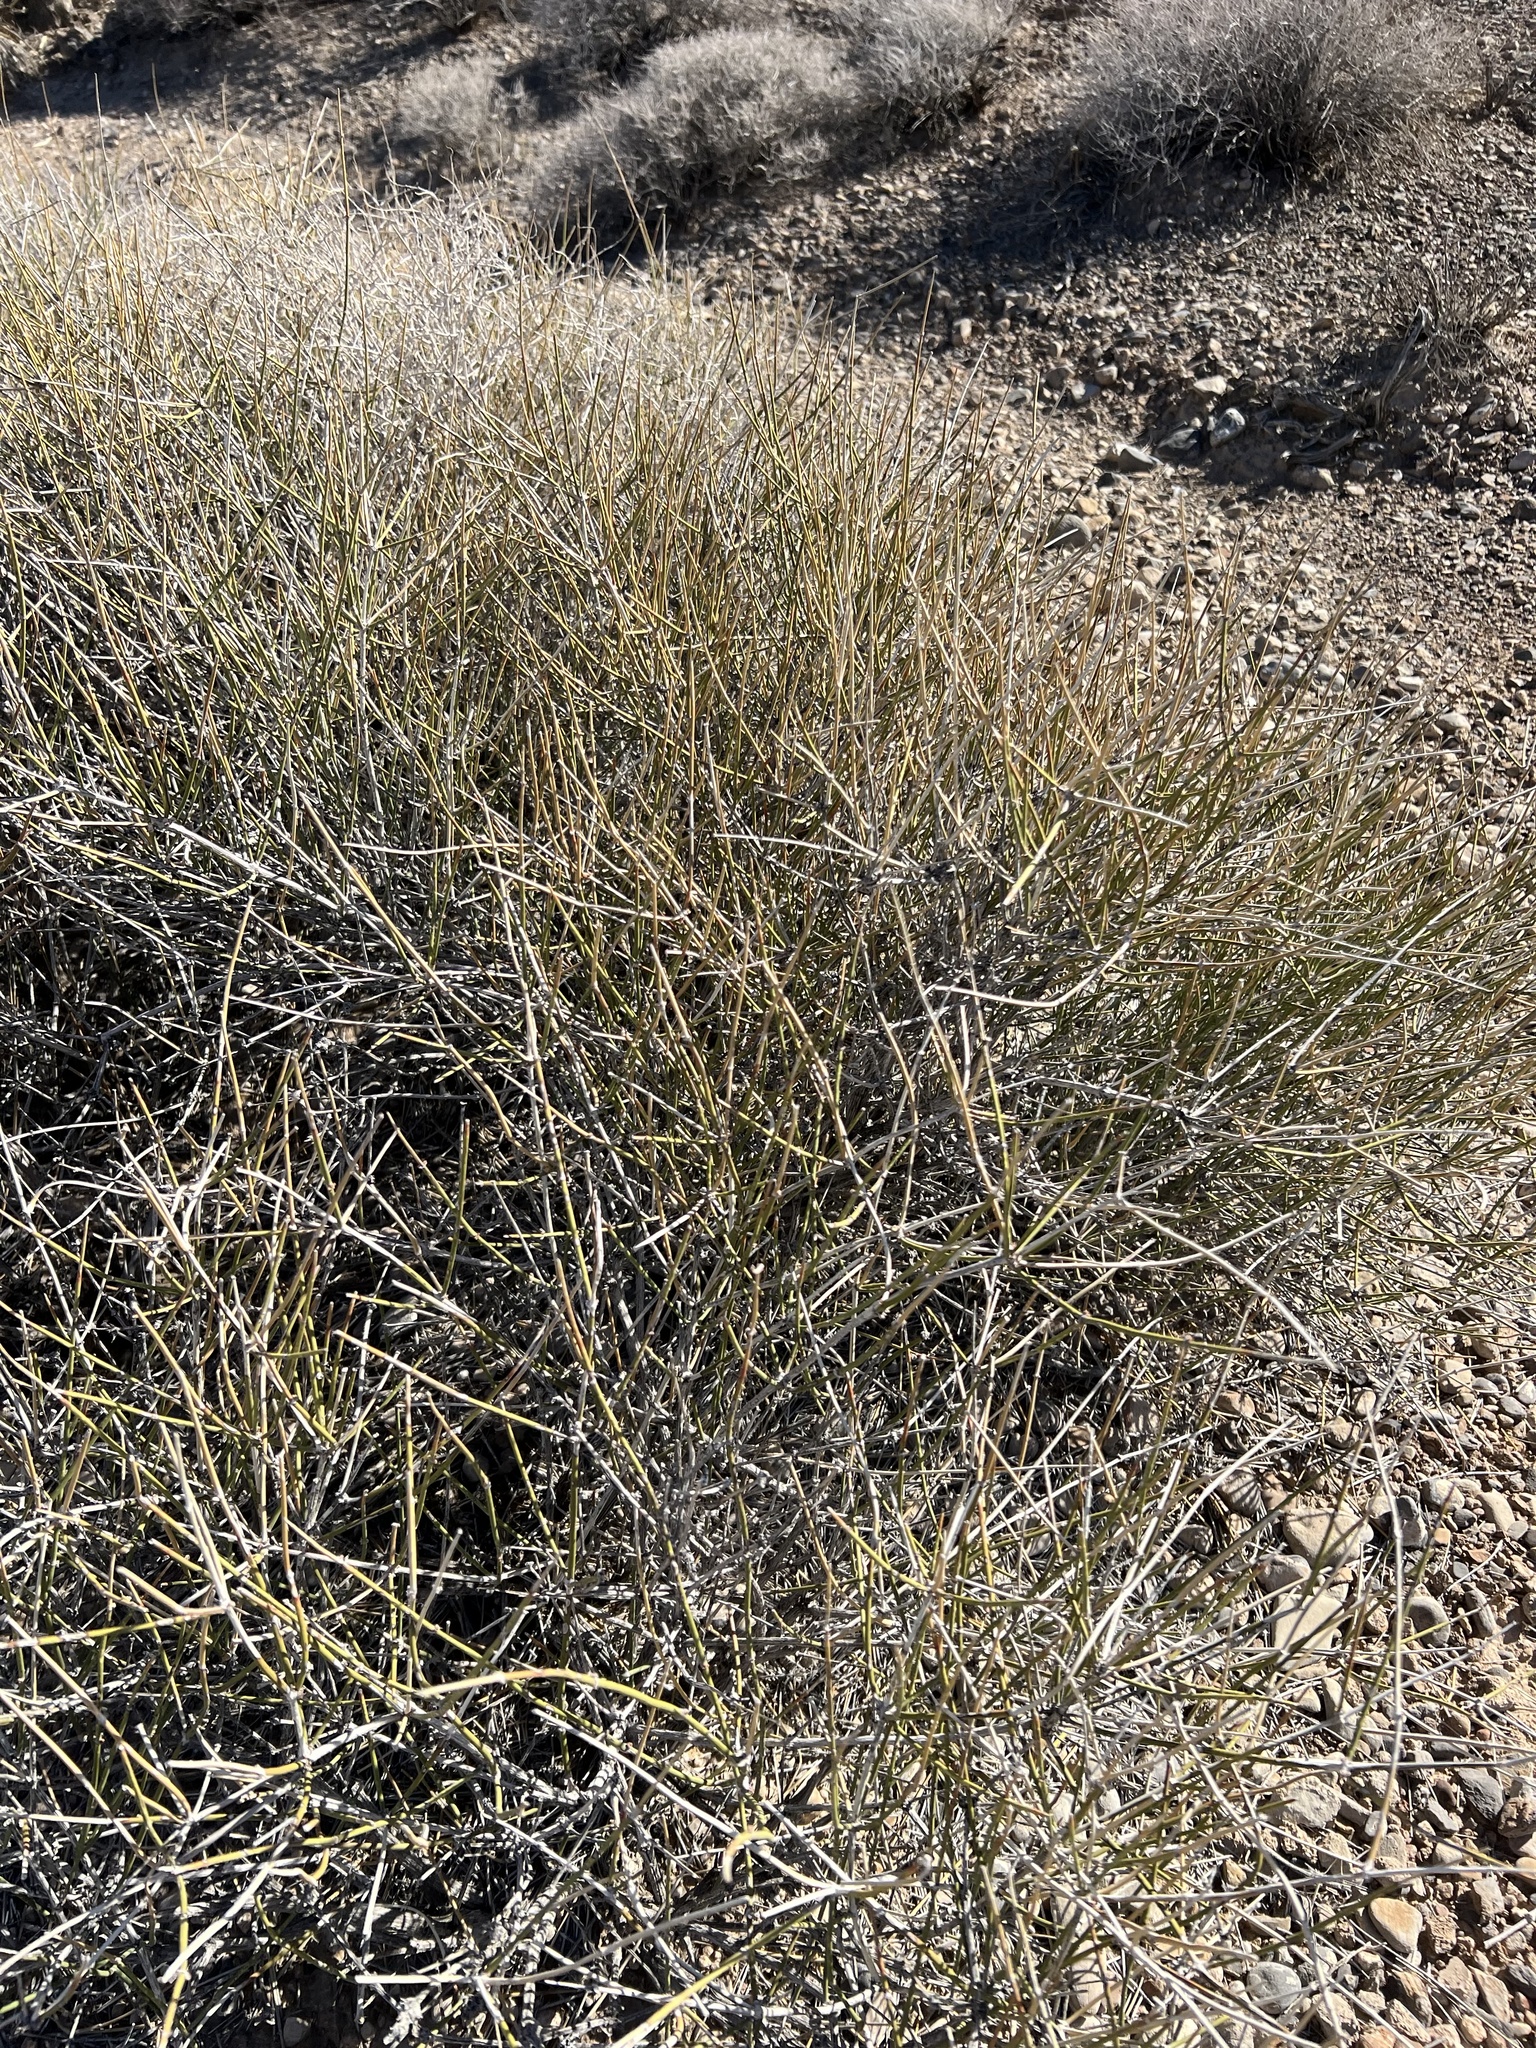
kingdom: Plantae
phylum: Tracheophyta
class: Gnetopsida
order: Ephedrales
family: Ephedraceae
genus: Ephedra
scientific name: Ephedra nevadensis
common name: Gray ephedra
